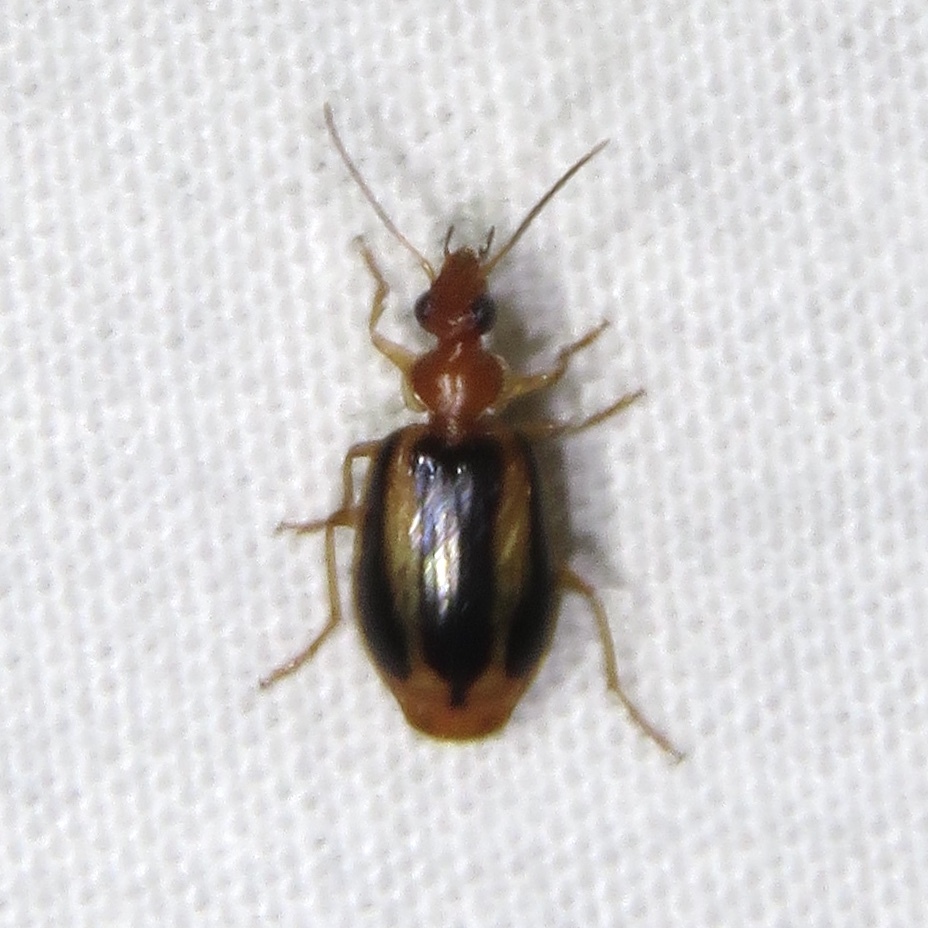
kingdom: Animalia
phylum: Arthropoda
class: Insecta
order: Coleoptera
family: Carabidae
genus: Lebia
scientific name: Lebia solea
